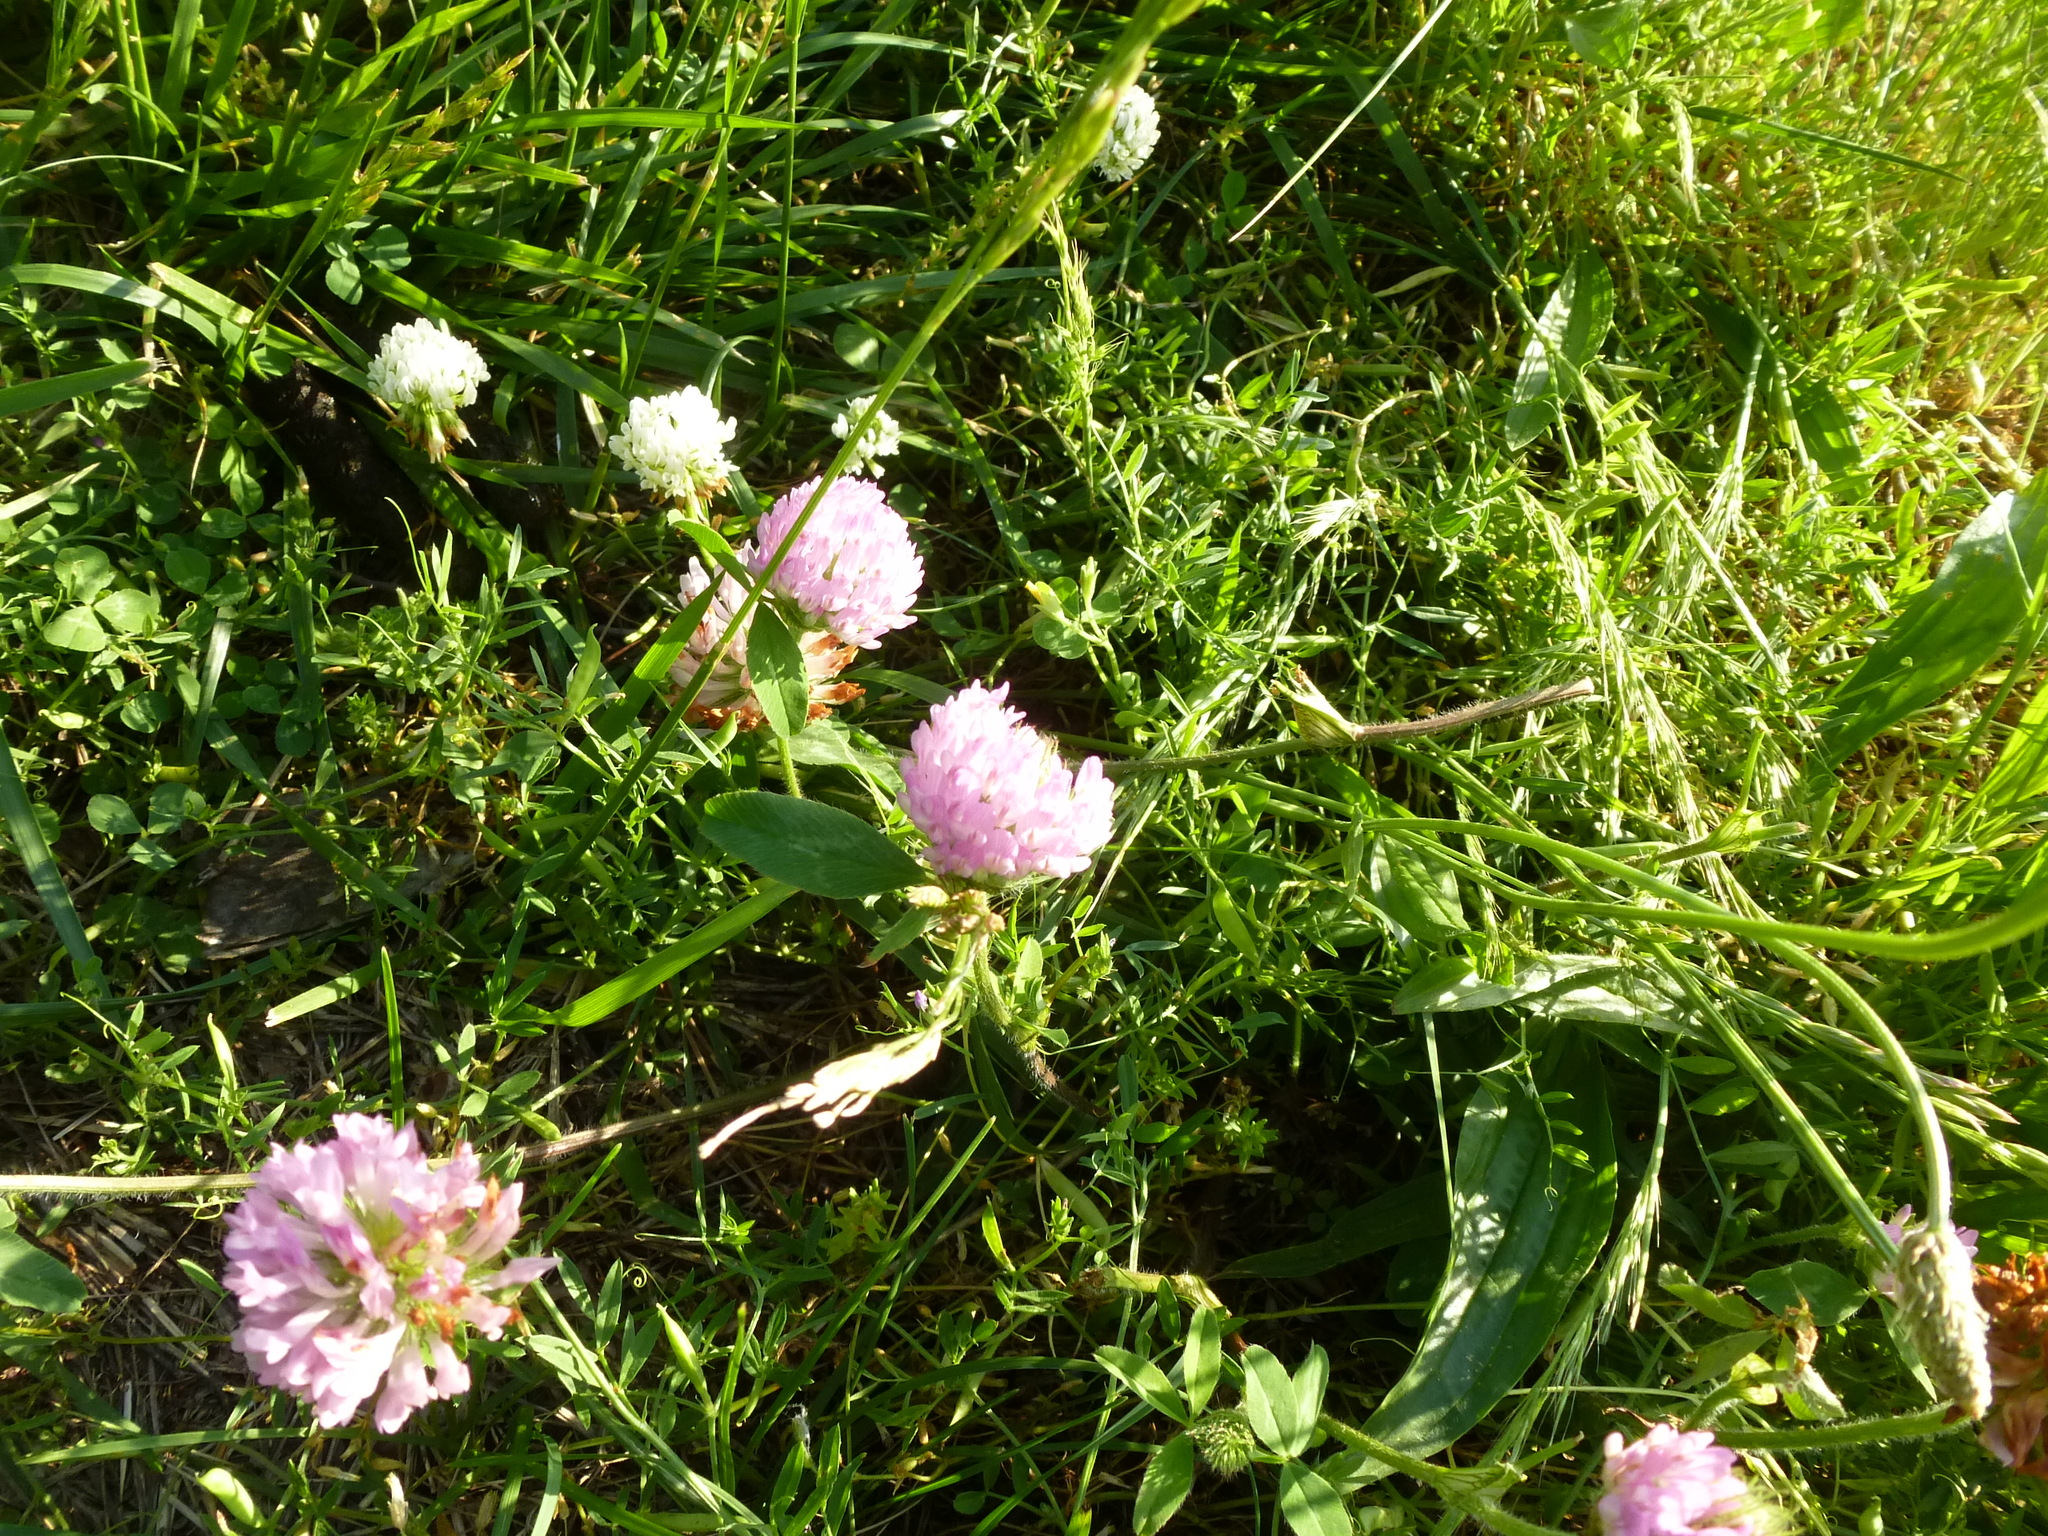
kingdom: Plantae
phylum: Tracheophyta
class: Magnoliopsida
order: Fabales
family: Fabaceae
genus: Trifolium
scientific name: Trifolium pratense
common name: Red clover
